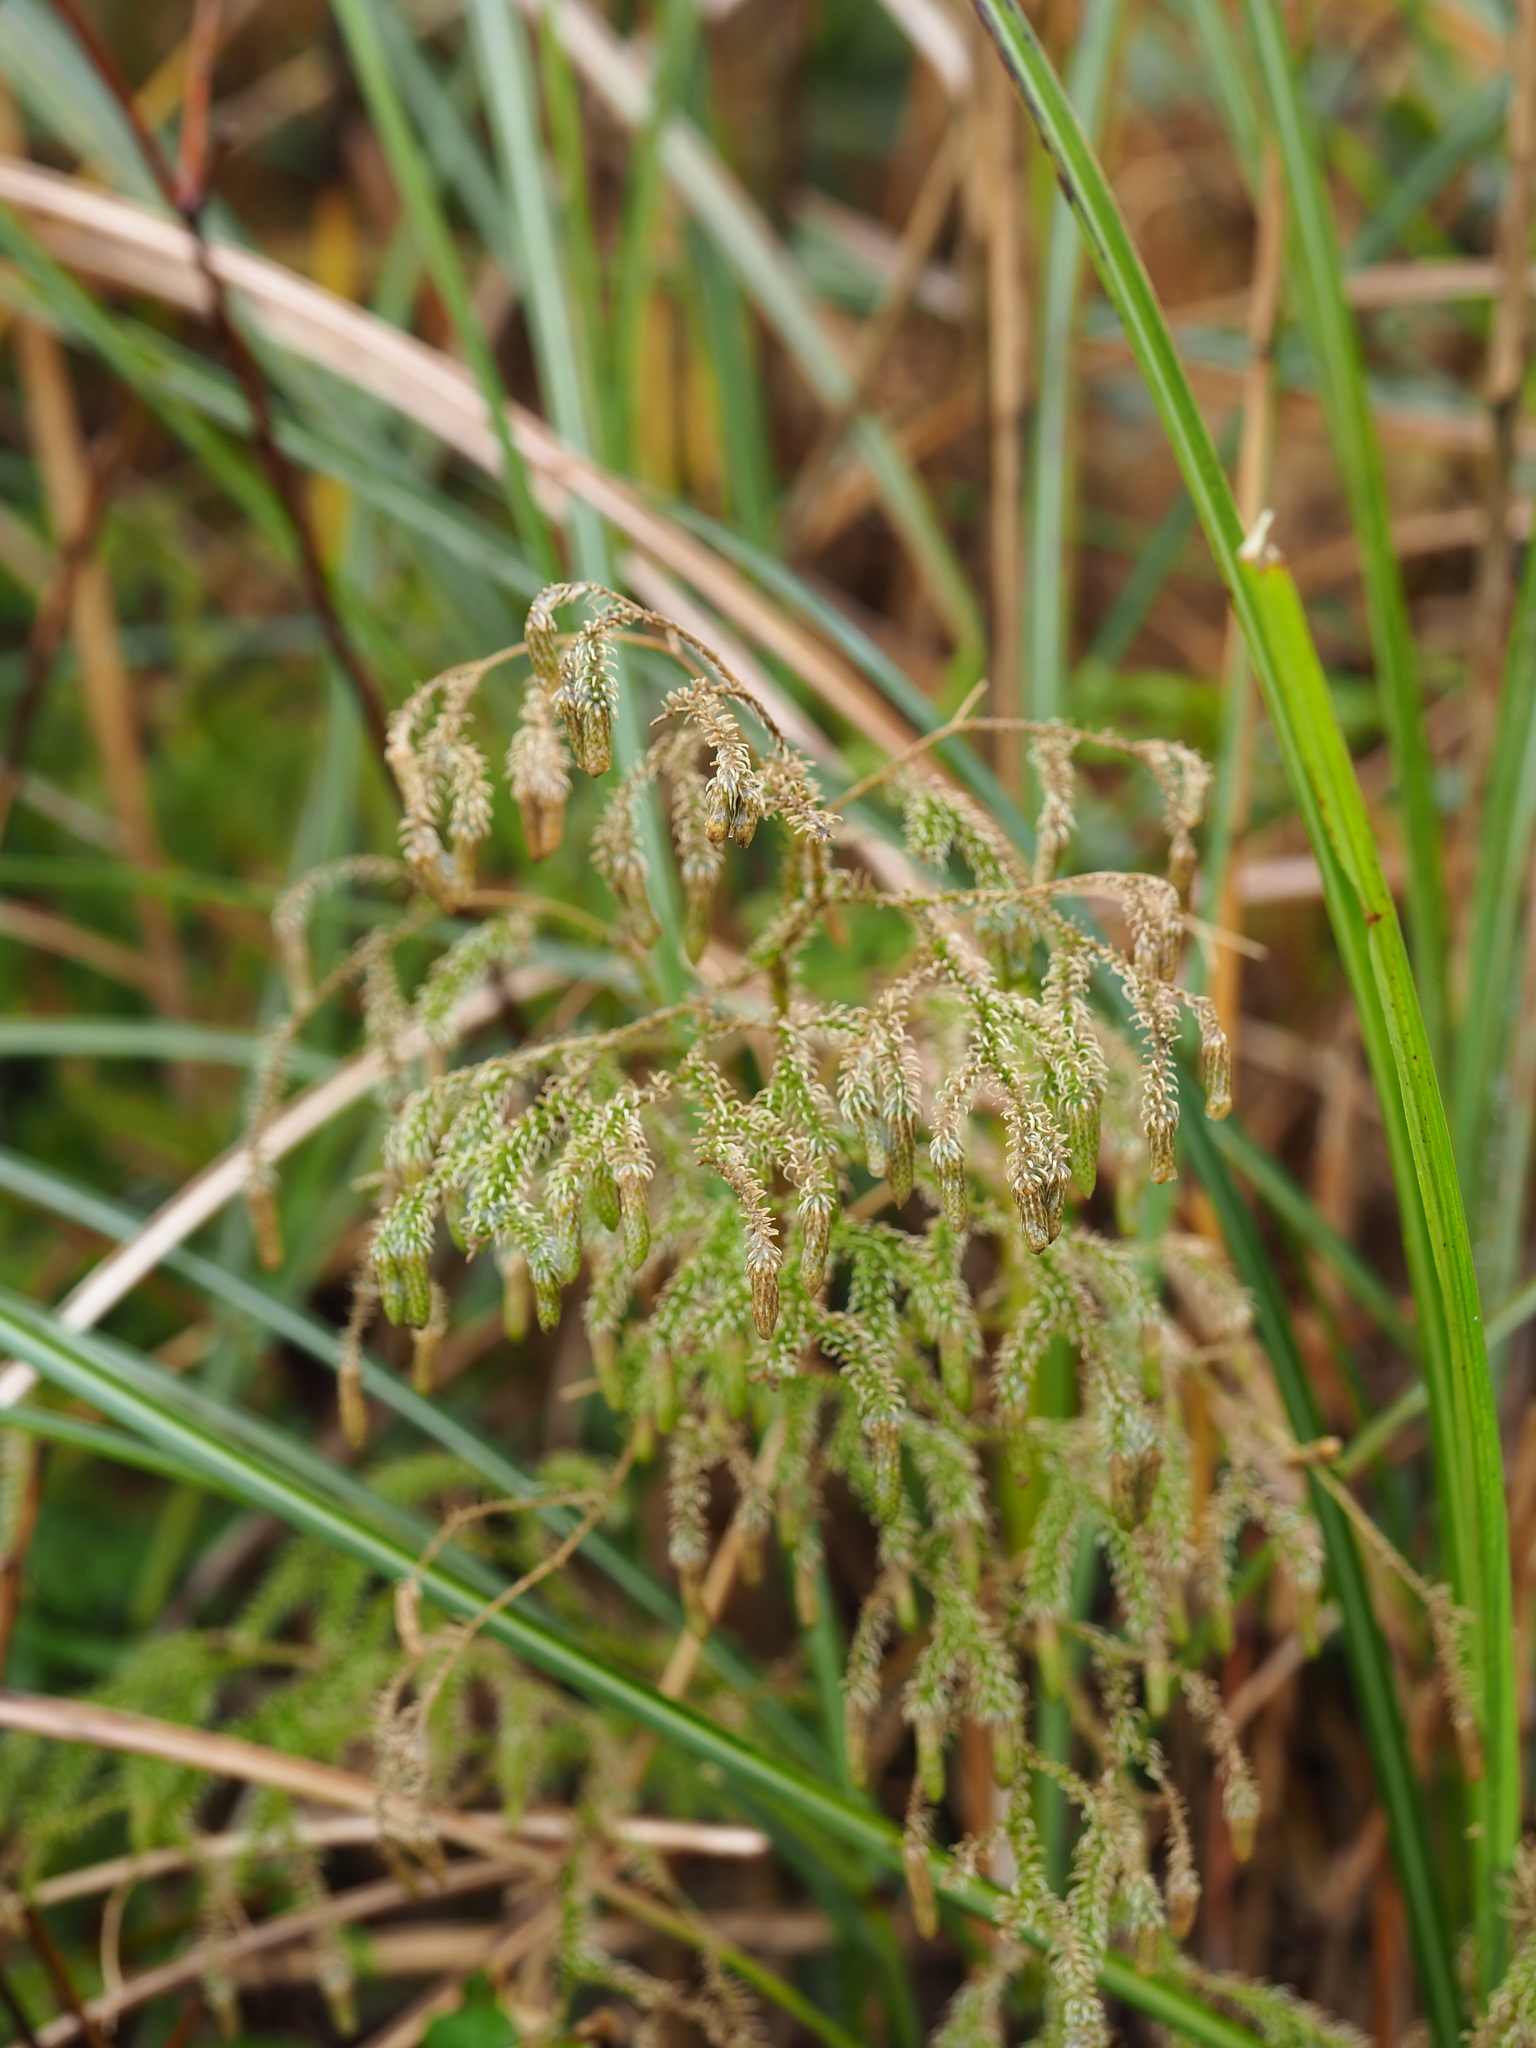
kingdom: Plantae
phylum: Tracheophyta
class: Lycopodiopsida
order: Lycopodiales
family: Lycopodiaceae
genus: Palhinhaea
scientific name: Palhinhaea cernua
